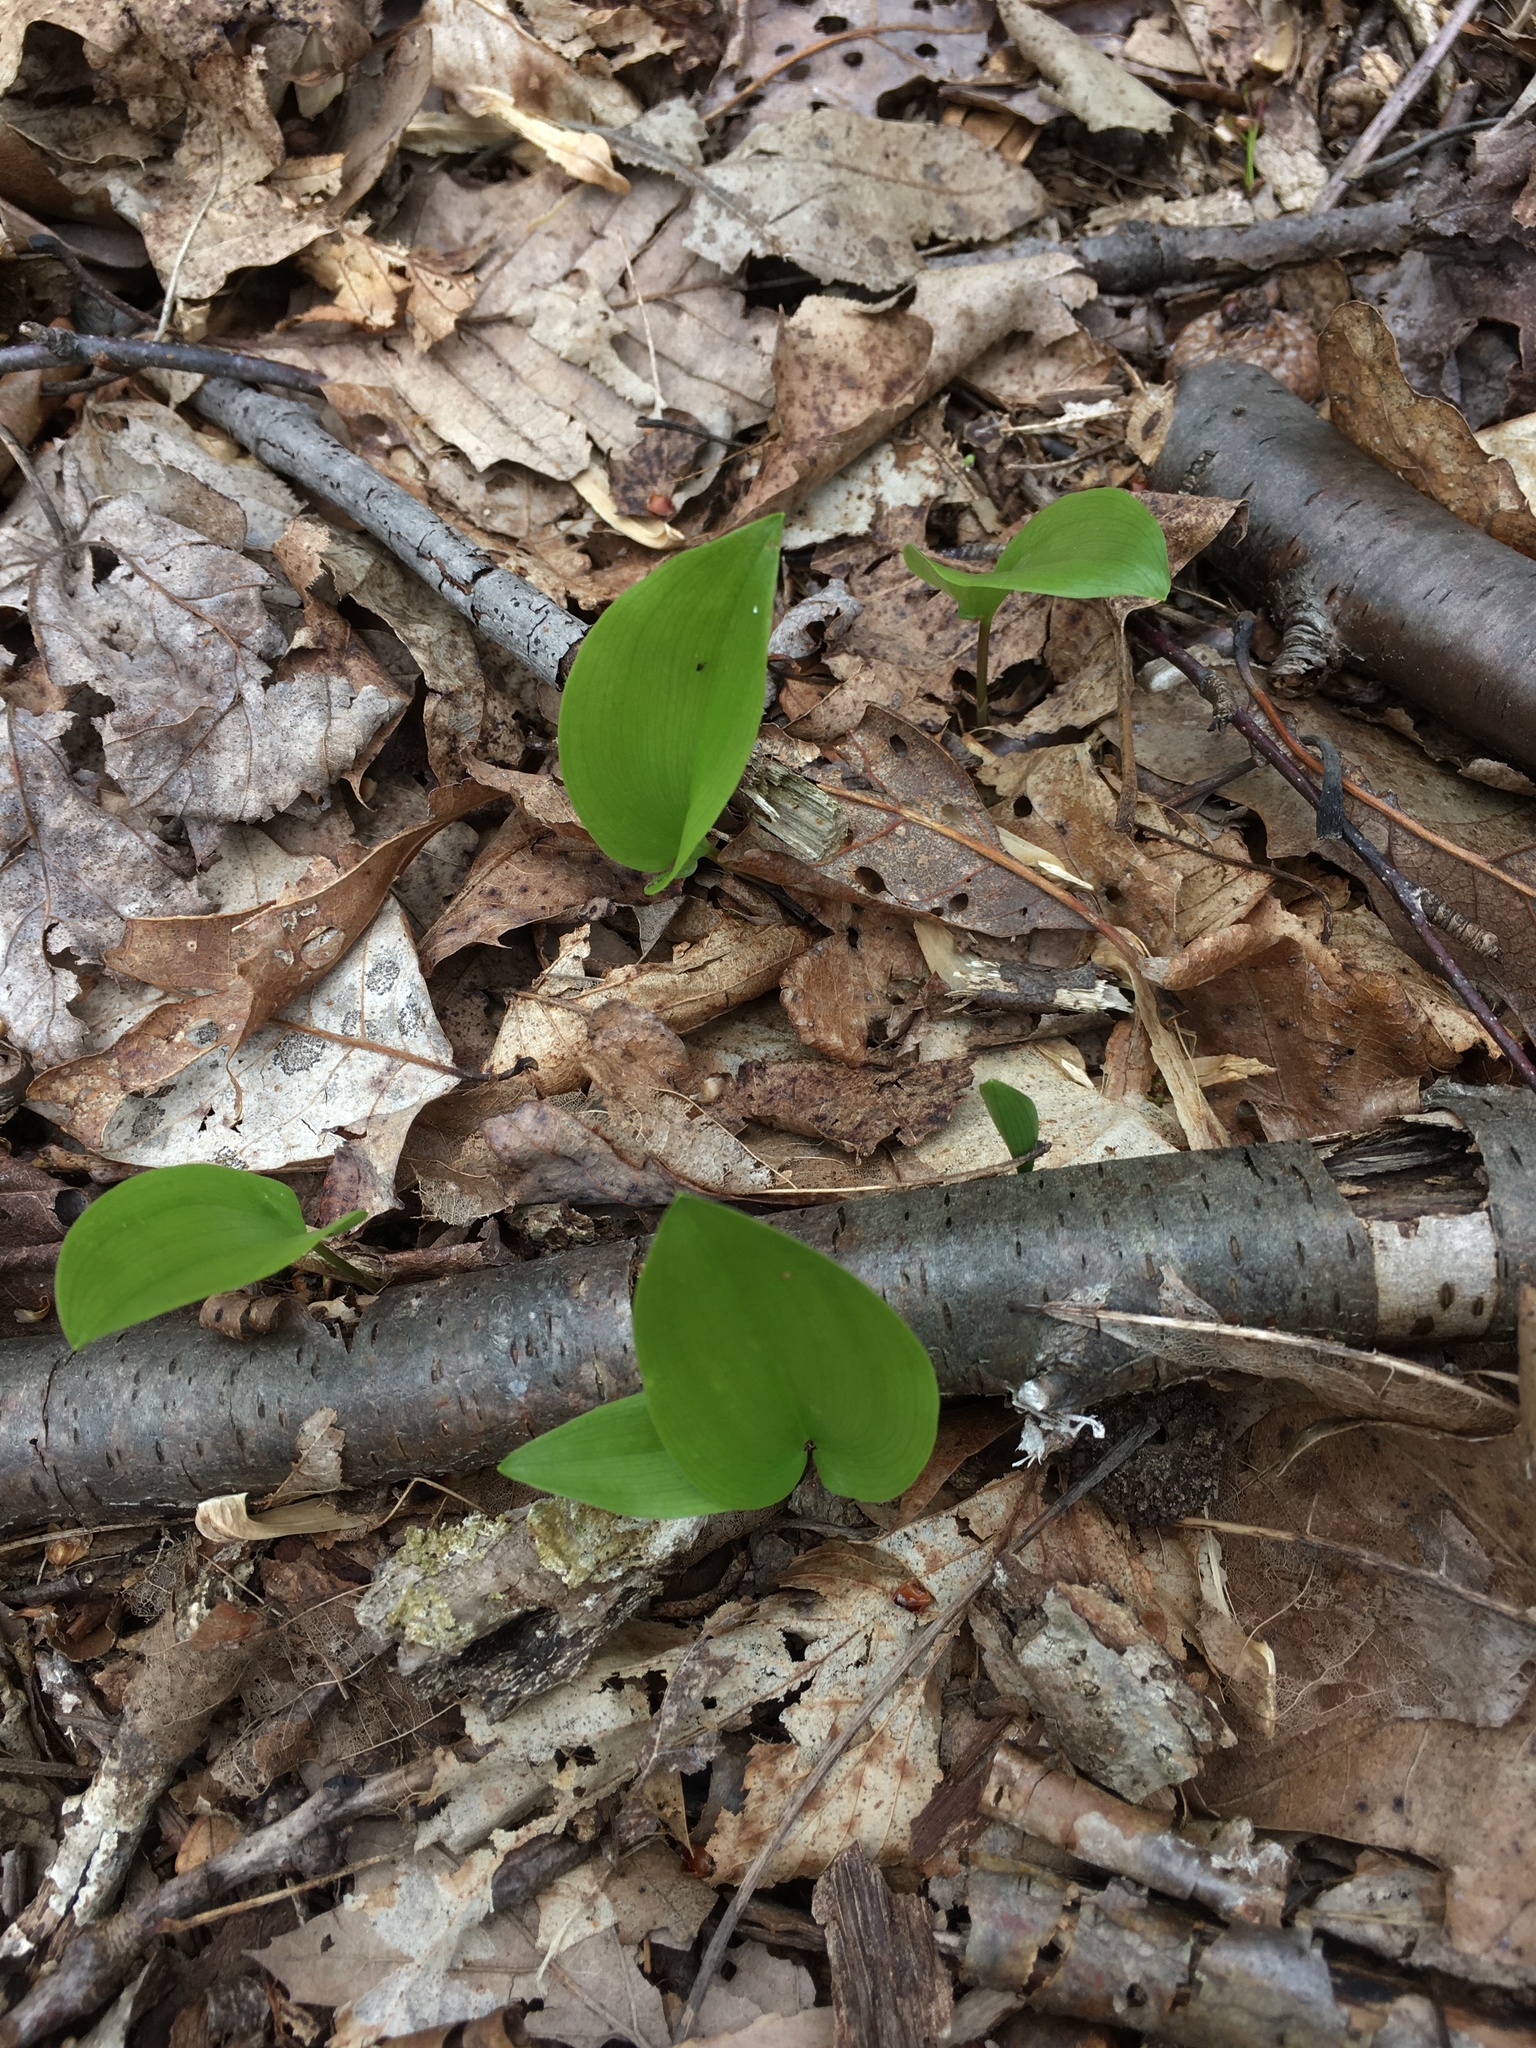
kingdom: Plantae
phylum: Tracheophyta
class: Liliopsida
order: Asparagales
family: Asparagaceae
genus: Maianthemum
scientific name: Maianthemum canadense
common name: False lily-of-the-valley
